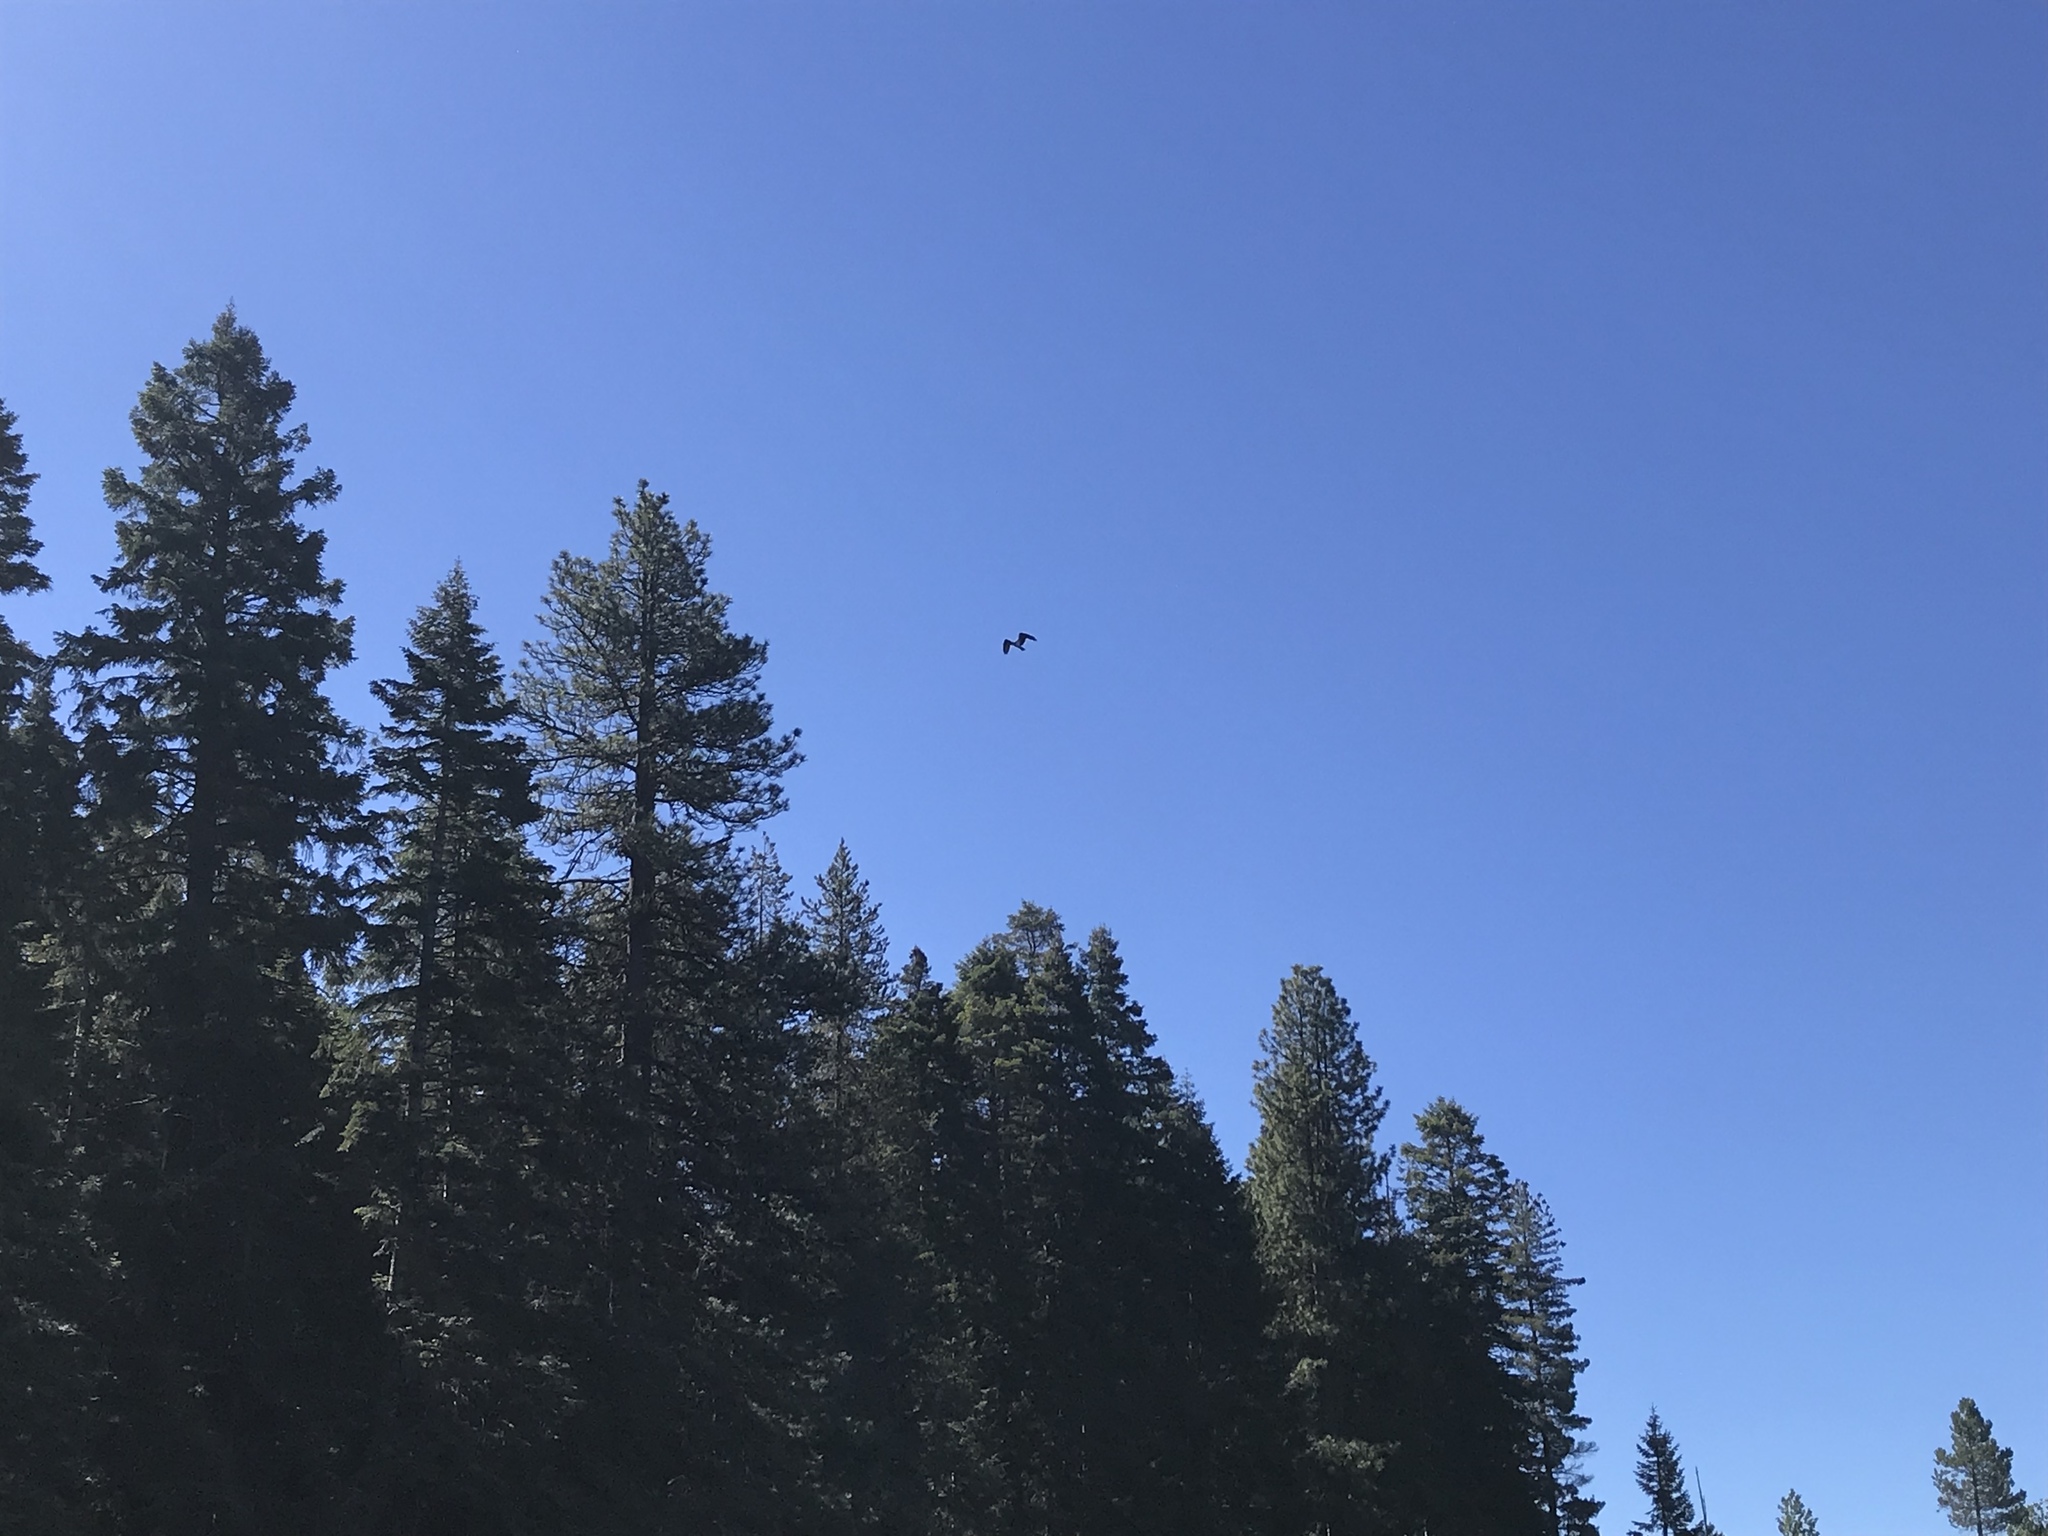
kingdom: Animalia
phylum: Chordata
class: Aves
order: Accipitriformes
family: Pandionidae
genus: Pandion
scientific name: Pandion haliaetus
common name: Osprey
